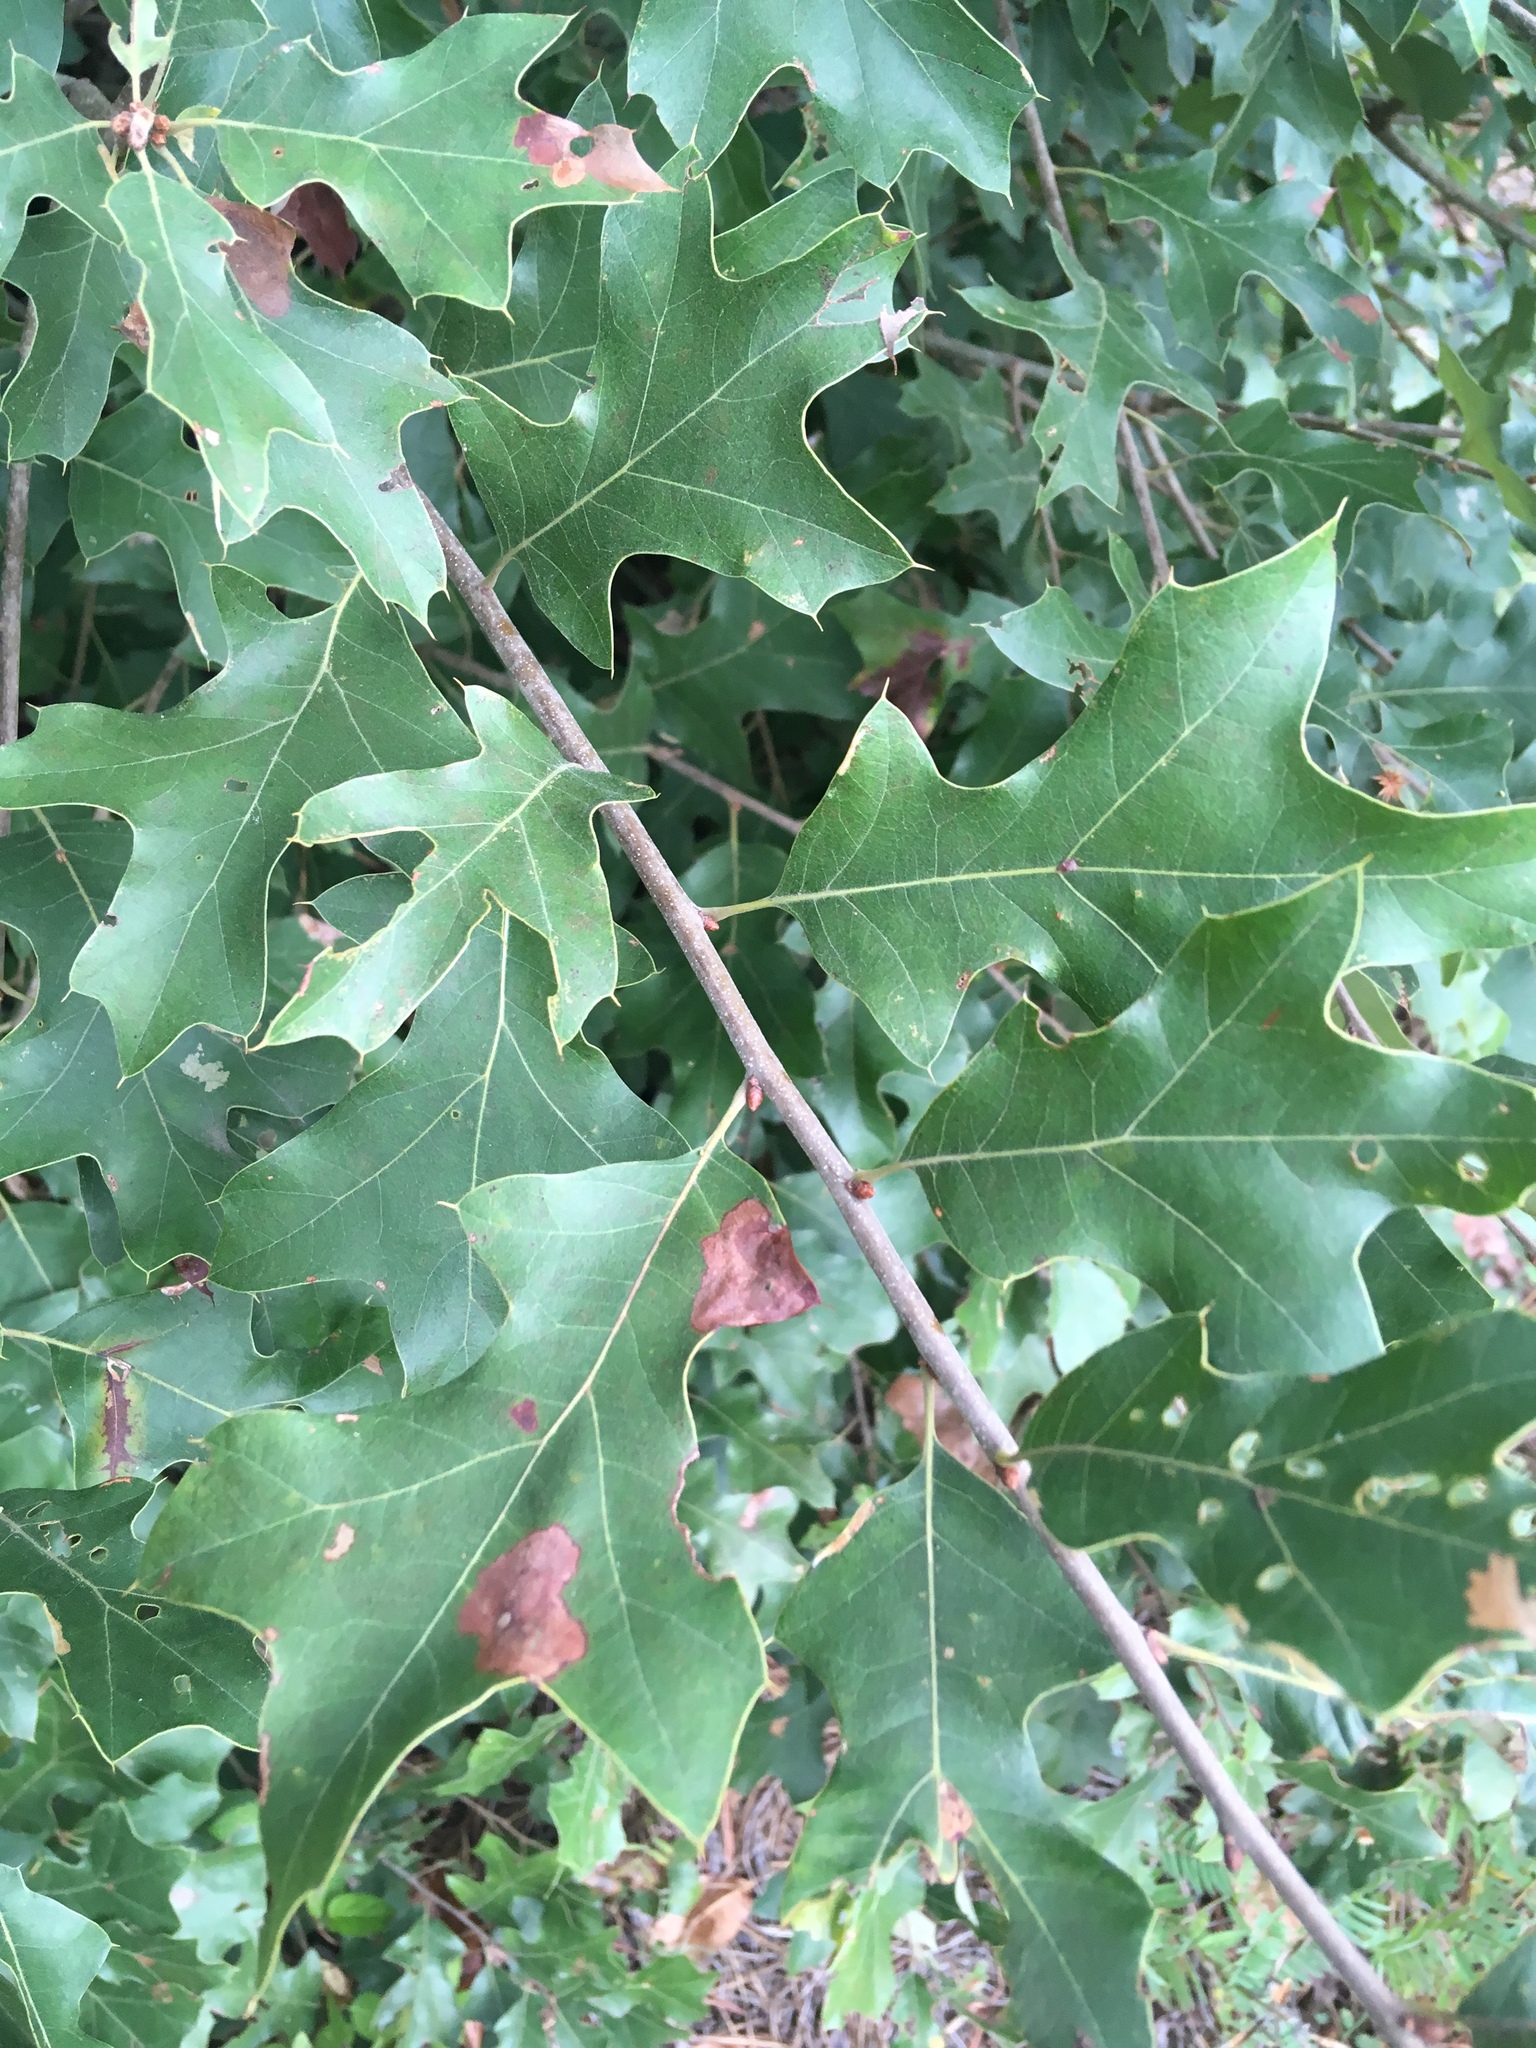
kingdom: Plantae
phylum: Tracheophyta
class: Magnoliopsida
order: Fagales
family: Fagaceae
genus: Quercus
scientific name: Quercus ilicifolia
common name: Bear oak
